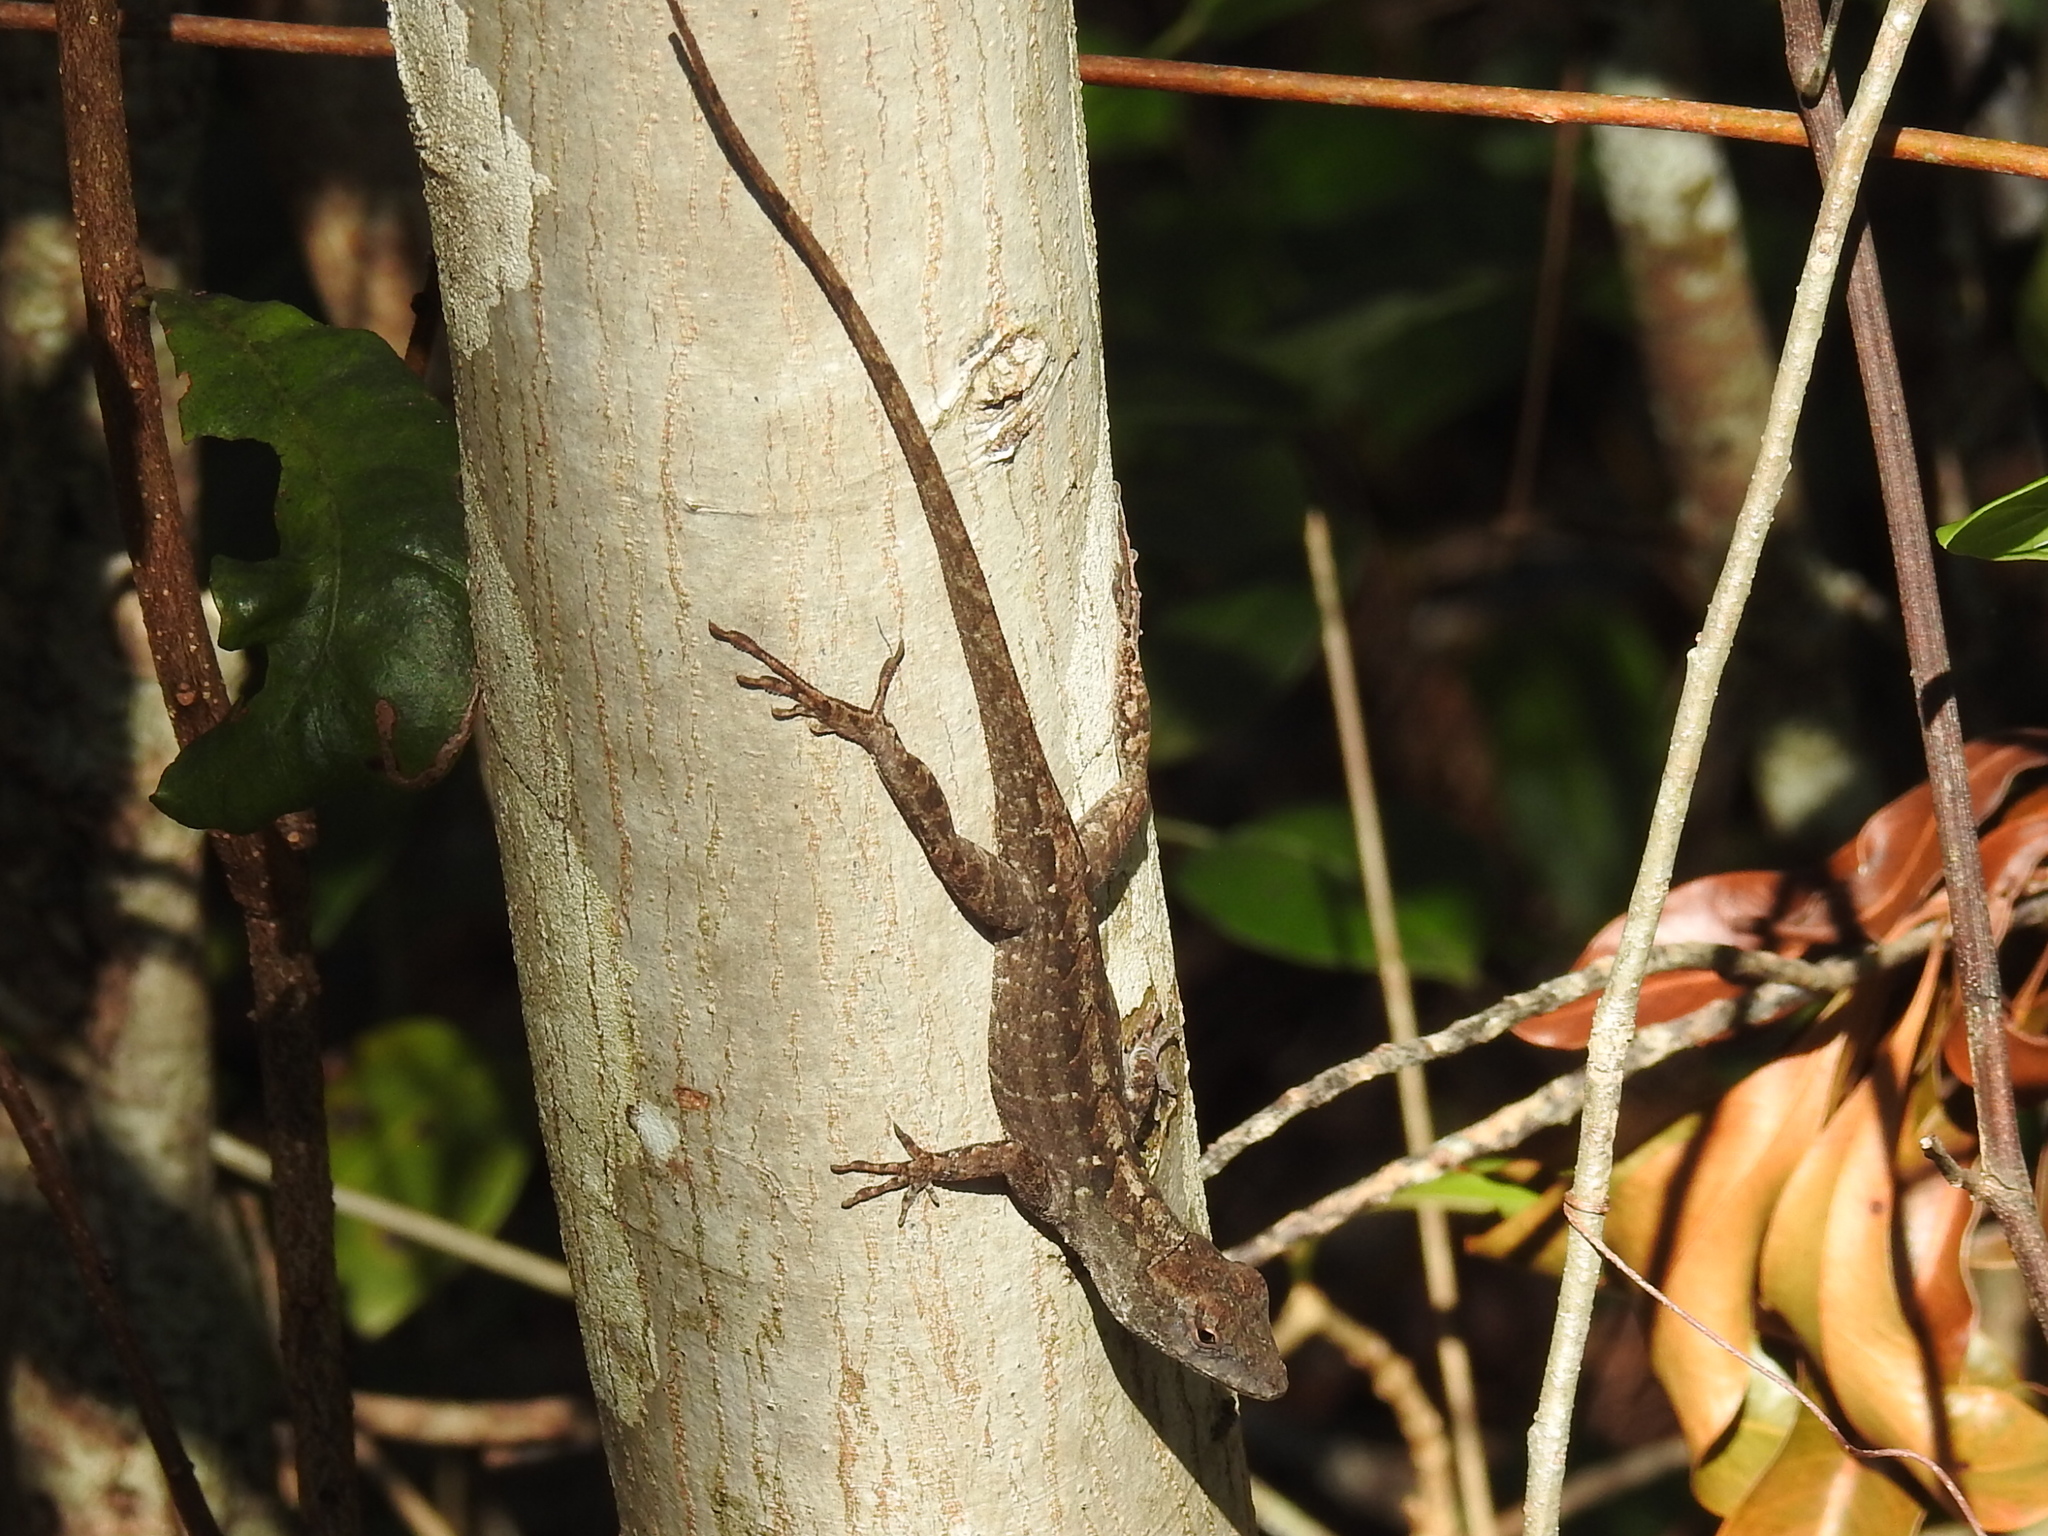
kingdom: Animalia
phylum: Chordata
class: Squamata
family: Dactyloidae
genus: Anolis
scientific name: Anolis sagrei
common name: Brown anole
